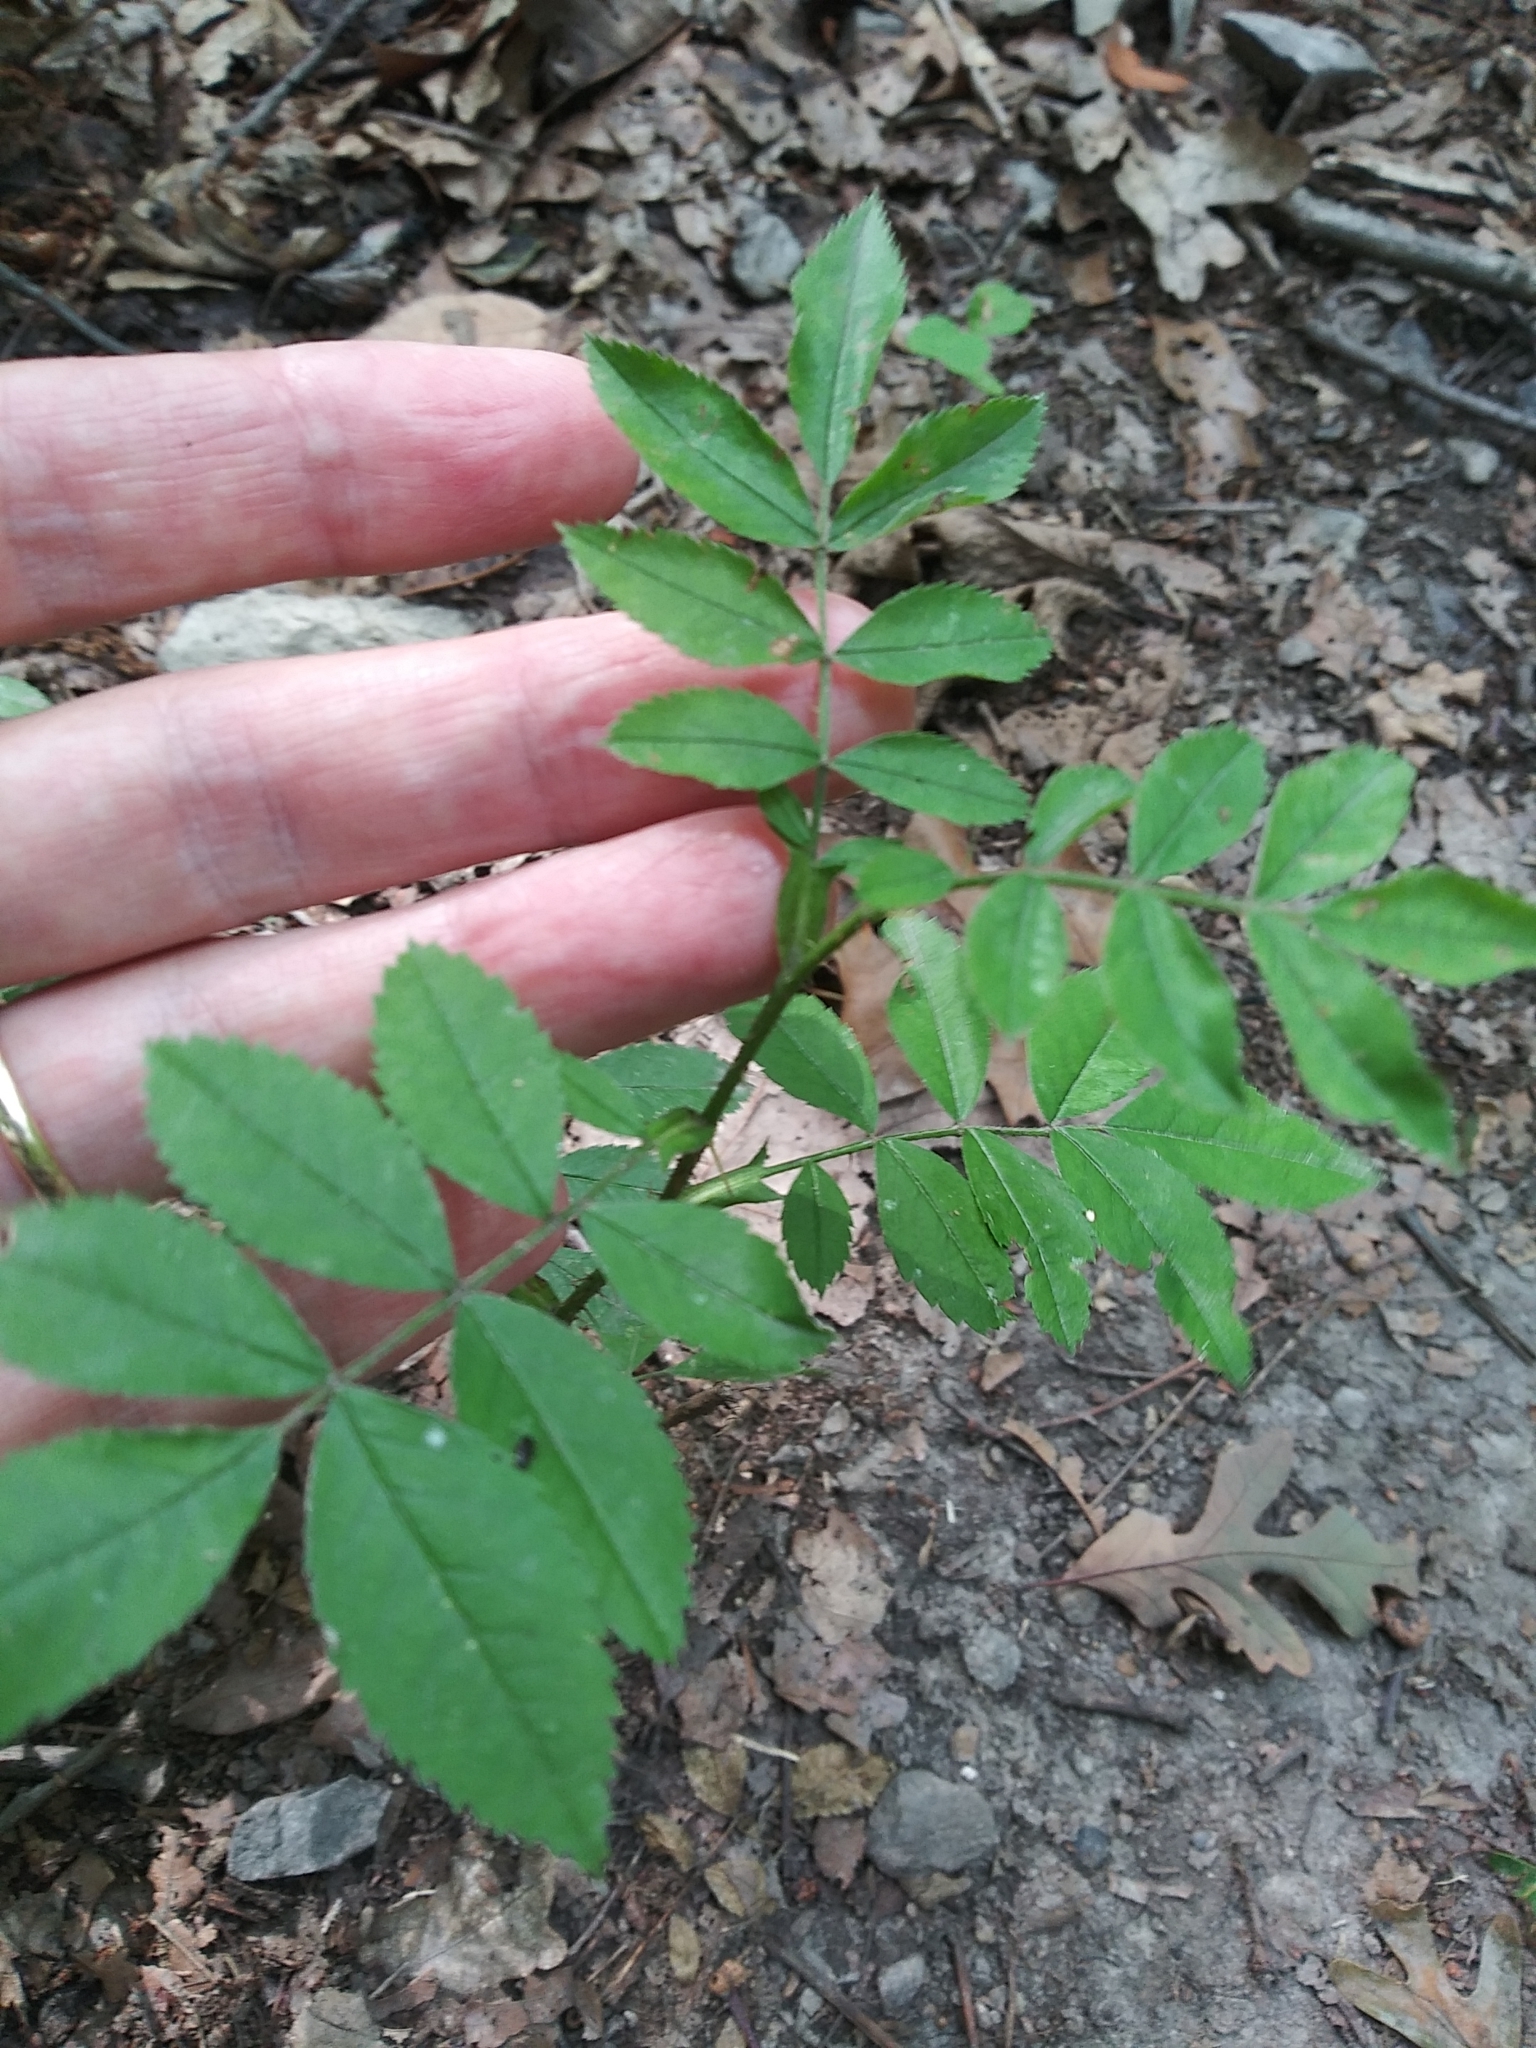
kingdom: Plantae
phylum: Tracheophyta
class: Magnoliopsida
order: Rosales
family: Rosaceae
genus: Rosa
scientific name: Rosa carolina
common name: Pasture rose
